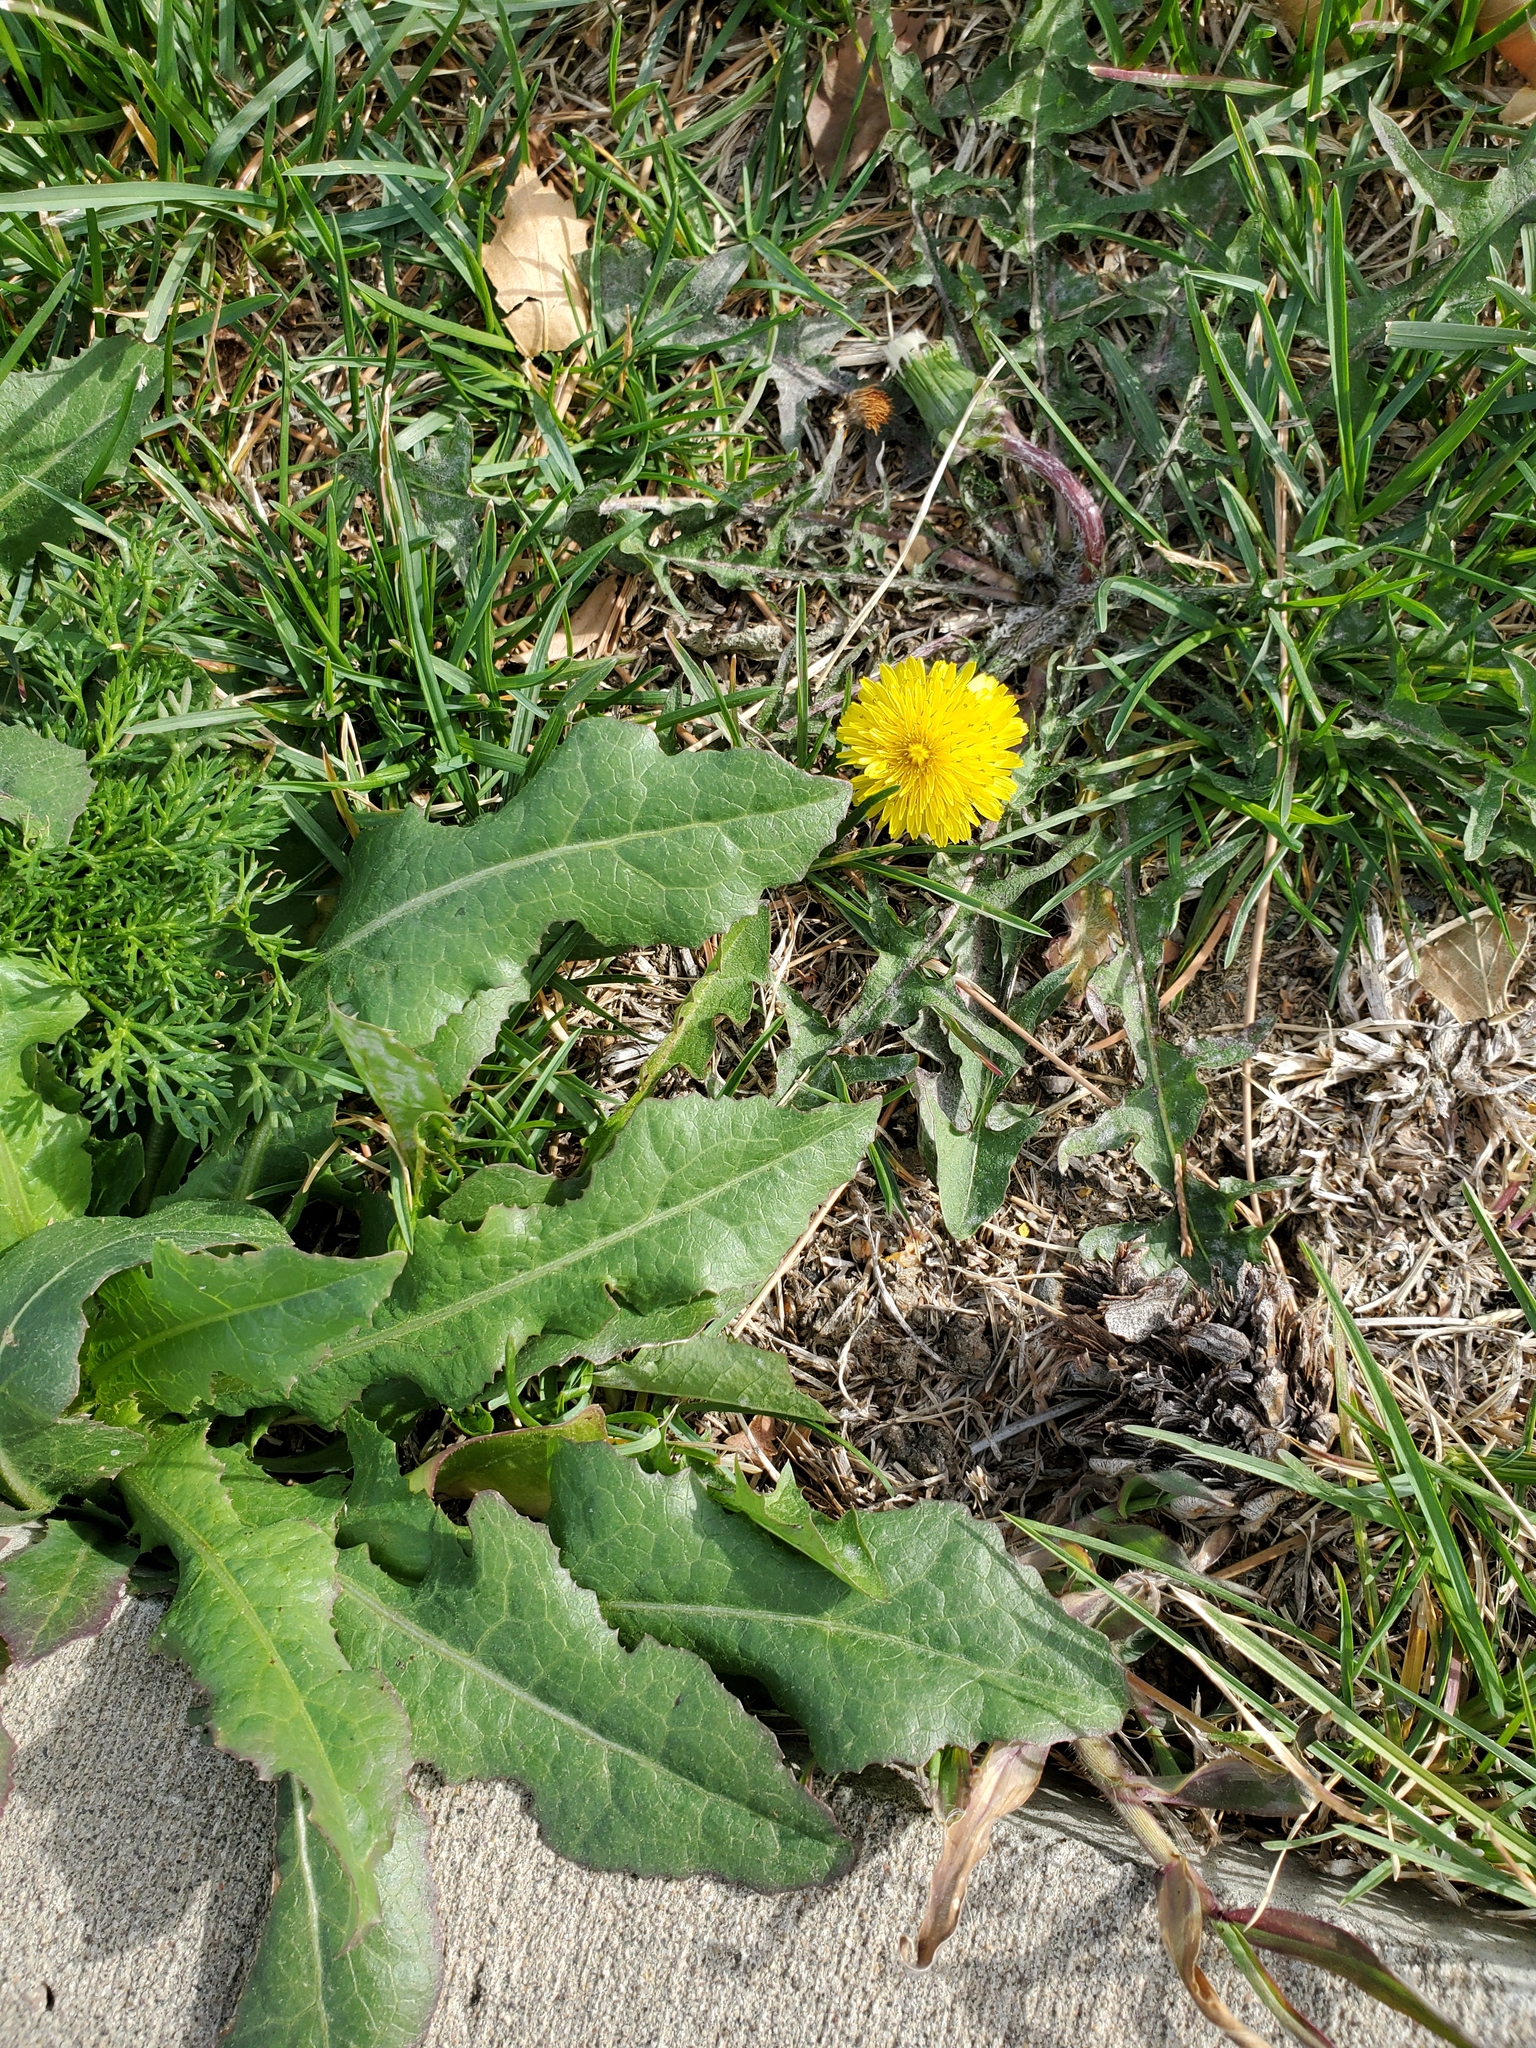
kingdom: Plantae
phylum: Tracheophyta
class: Magnoliopsida
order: Asterales
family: Asteraceae
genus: Taraxacum
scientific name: Taraxacum officinale
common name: Common dandelion
